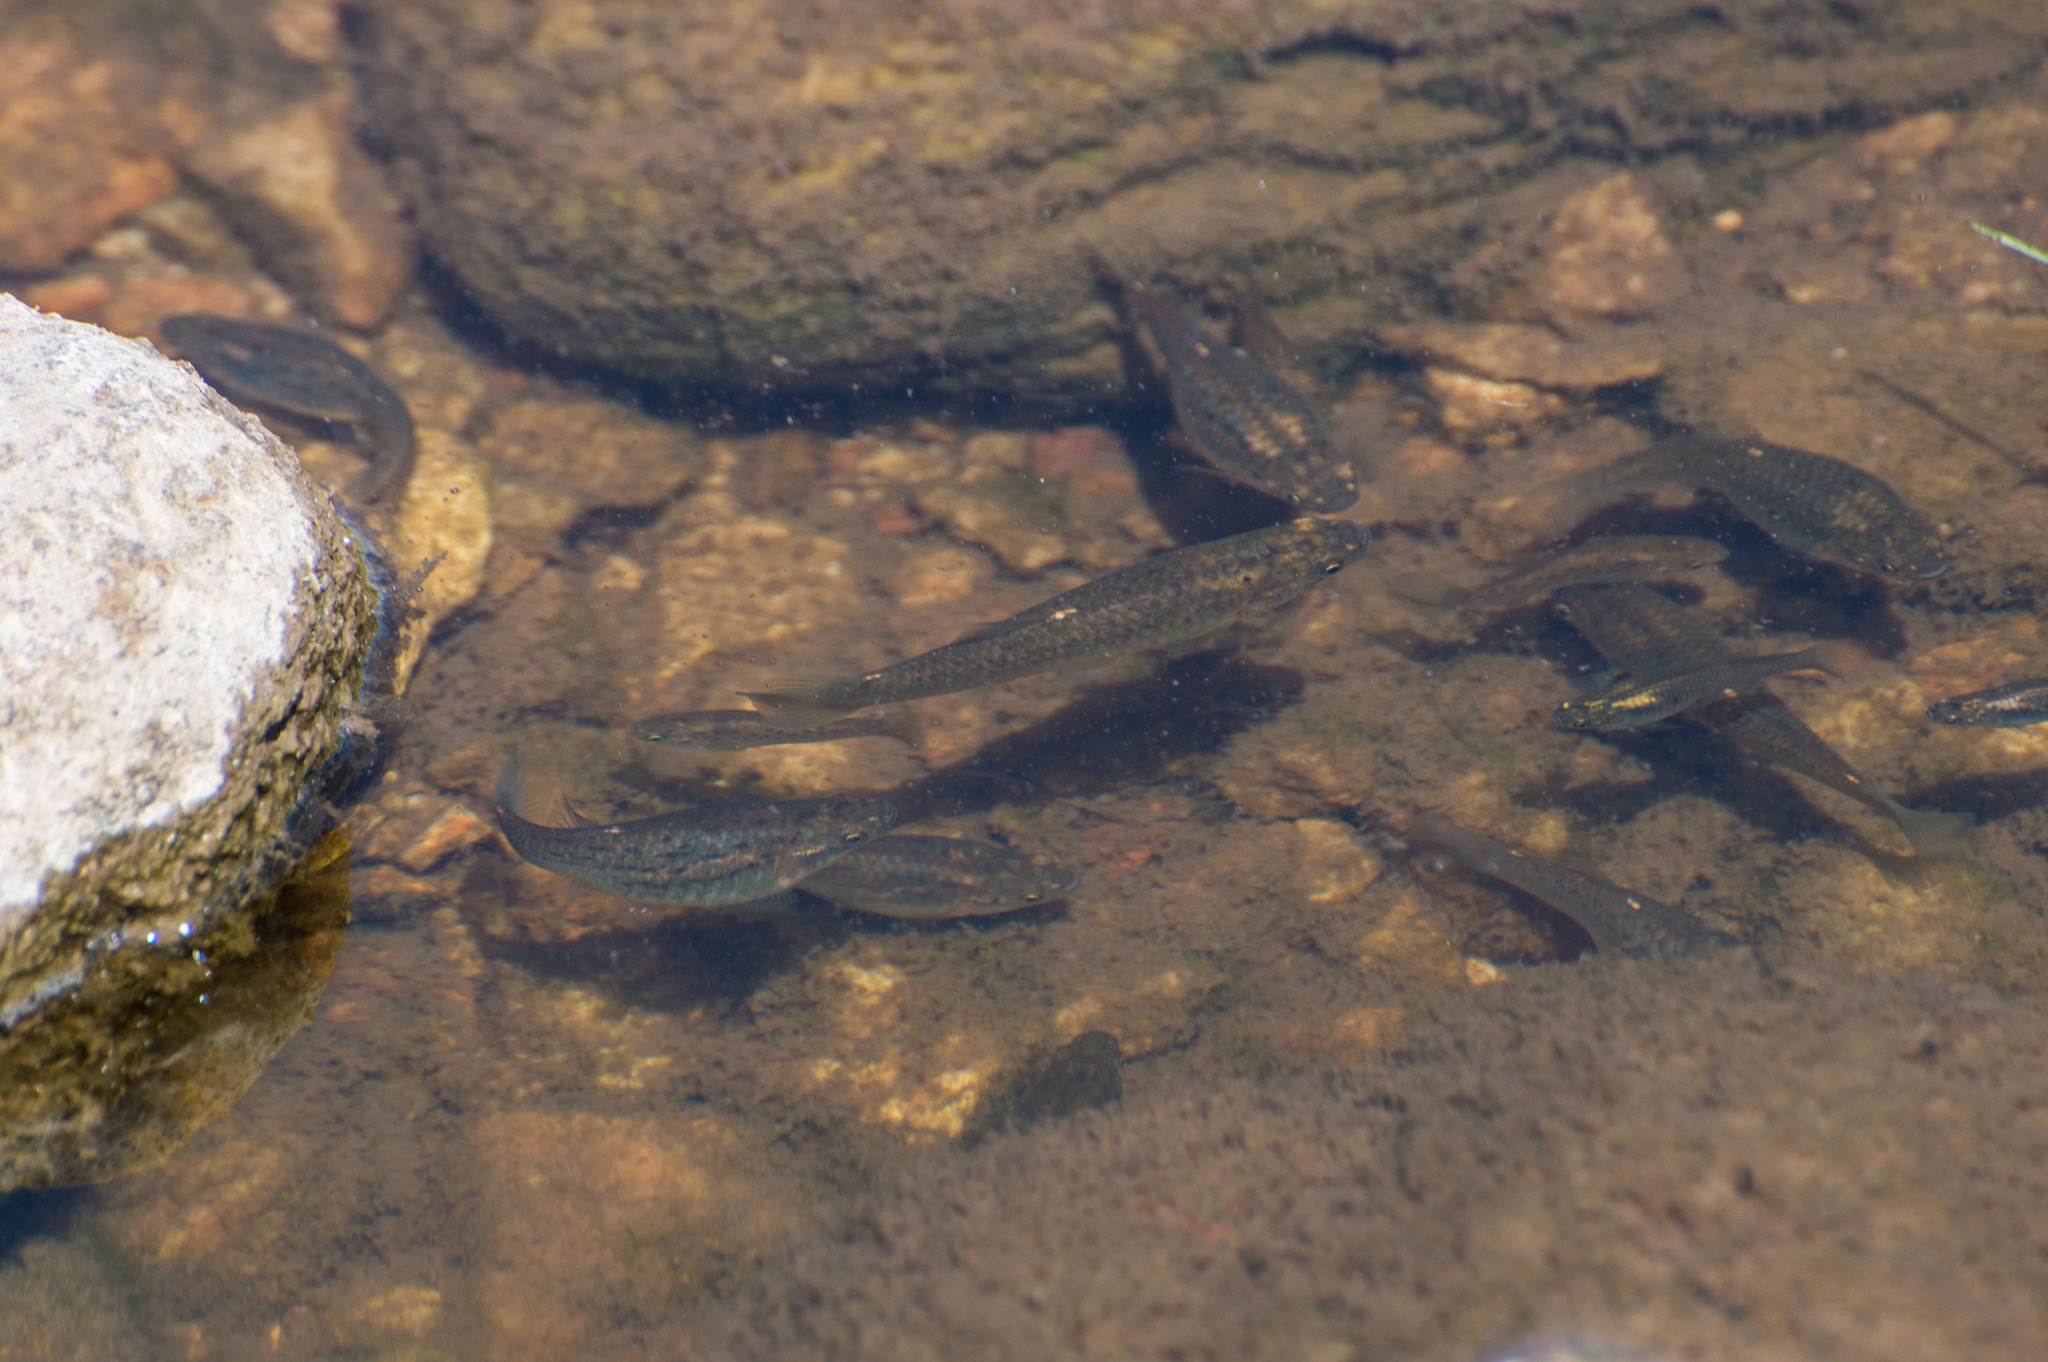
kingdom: Animalia
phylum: Chordata
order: Cyprinodontiformes
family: Anablepidae
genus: Jenynsia
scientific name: Jenynsia lineata
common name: Onesided livebearer
